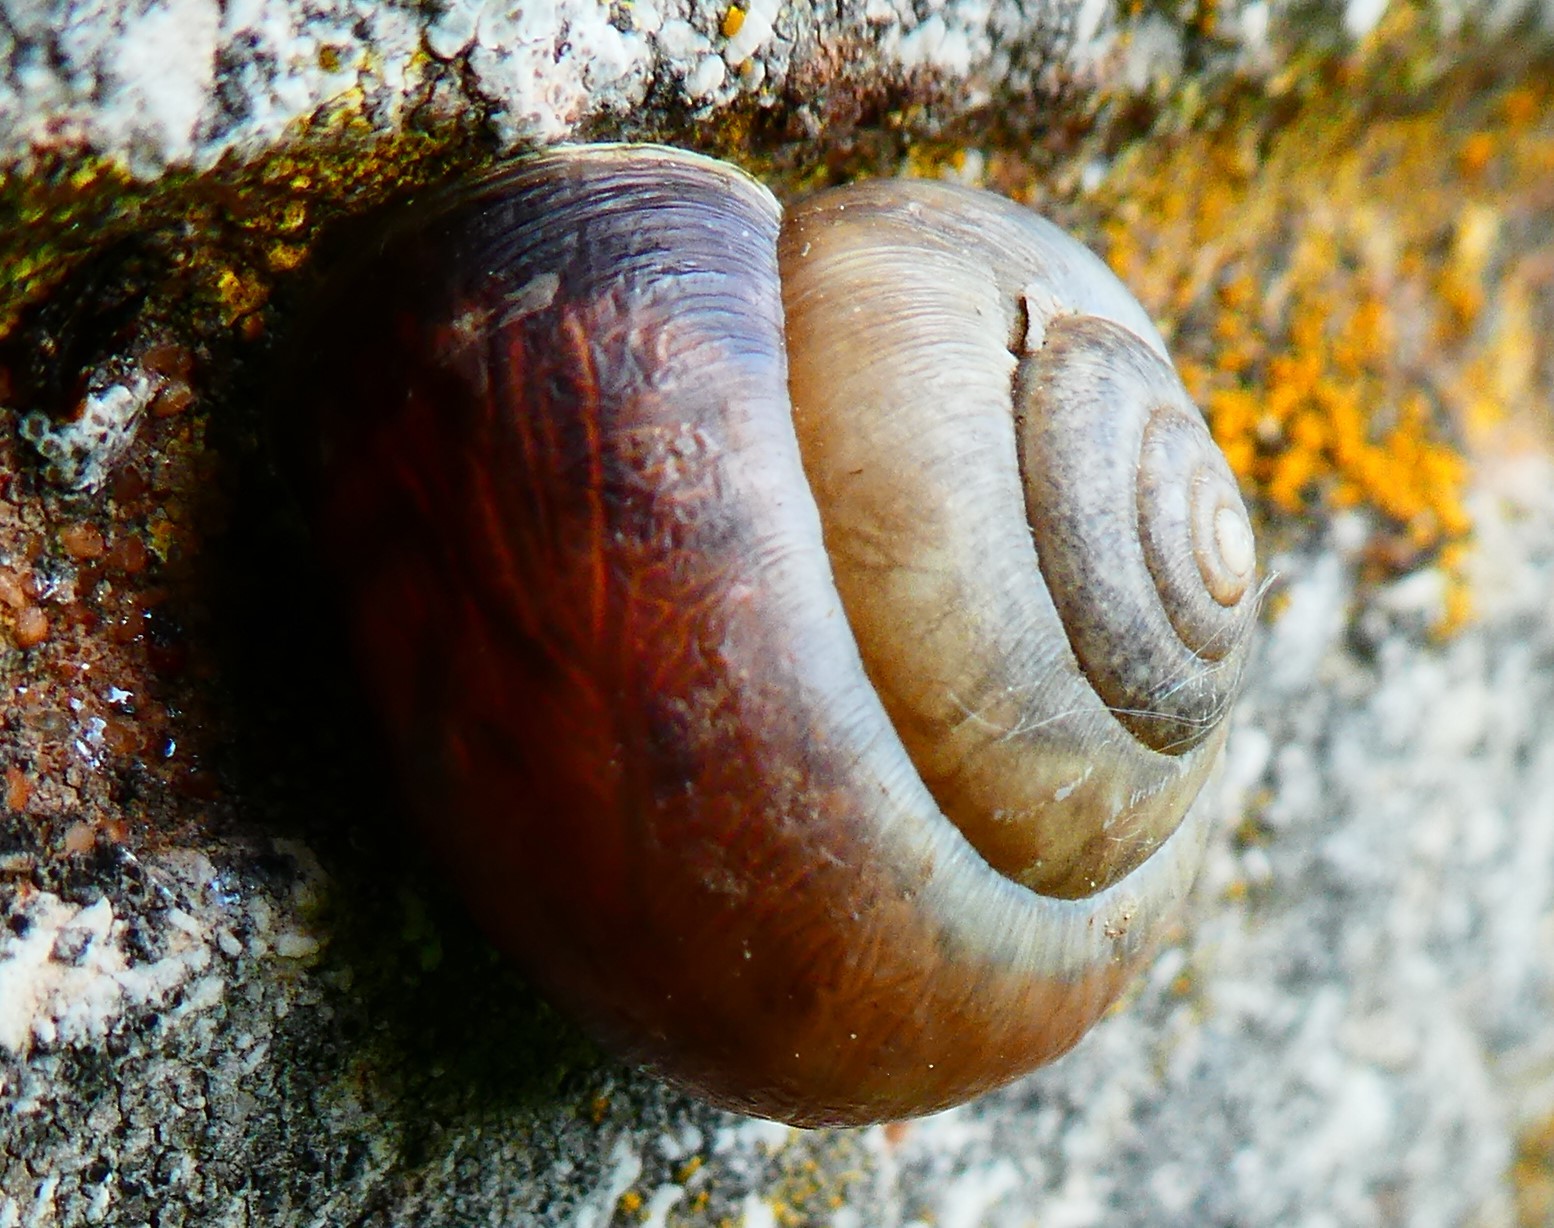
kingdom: Animalia
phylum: Mollusca
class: Gastropoda
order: Stylommatophora
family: Hygromiidae
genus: Monacha
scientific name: Monacha cantiana
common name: Kentish snail
